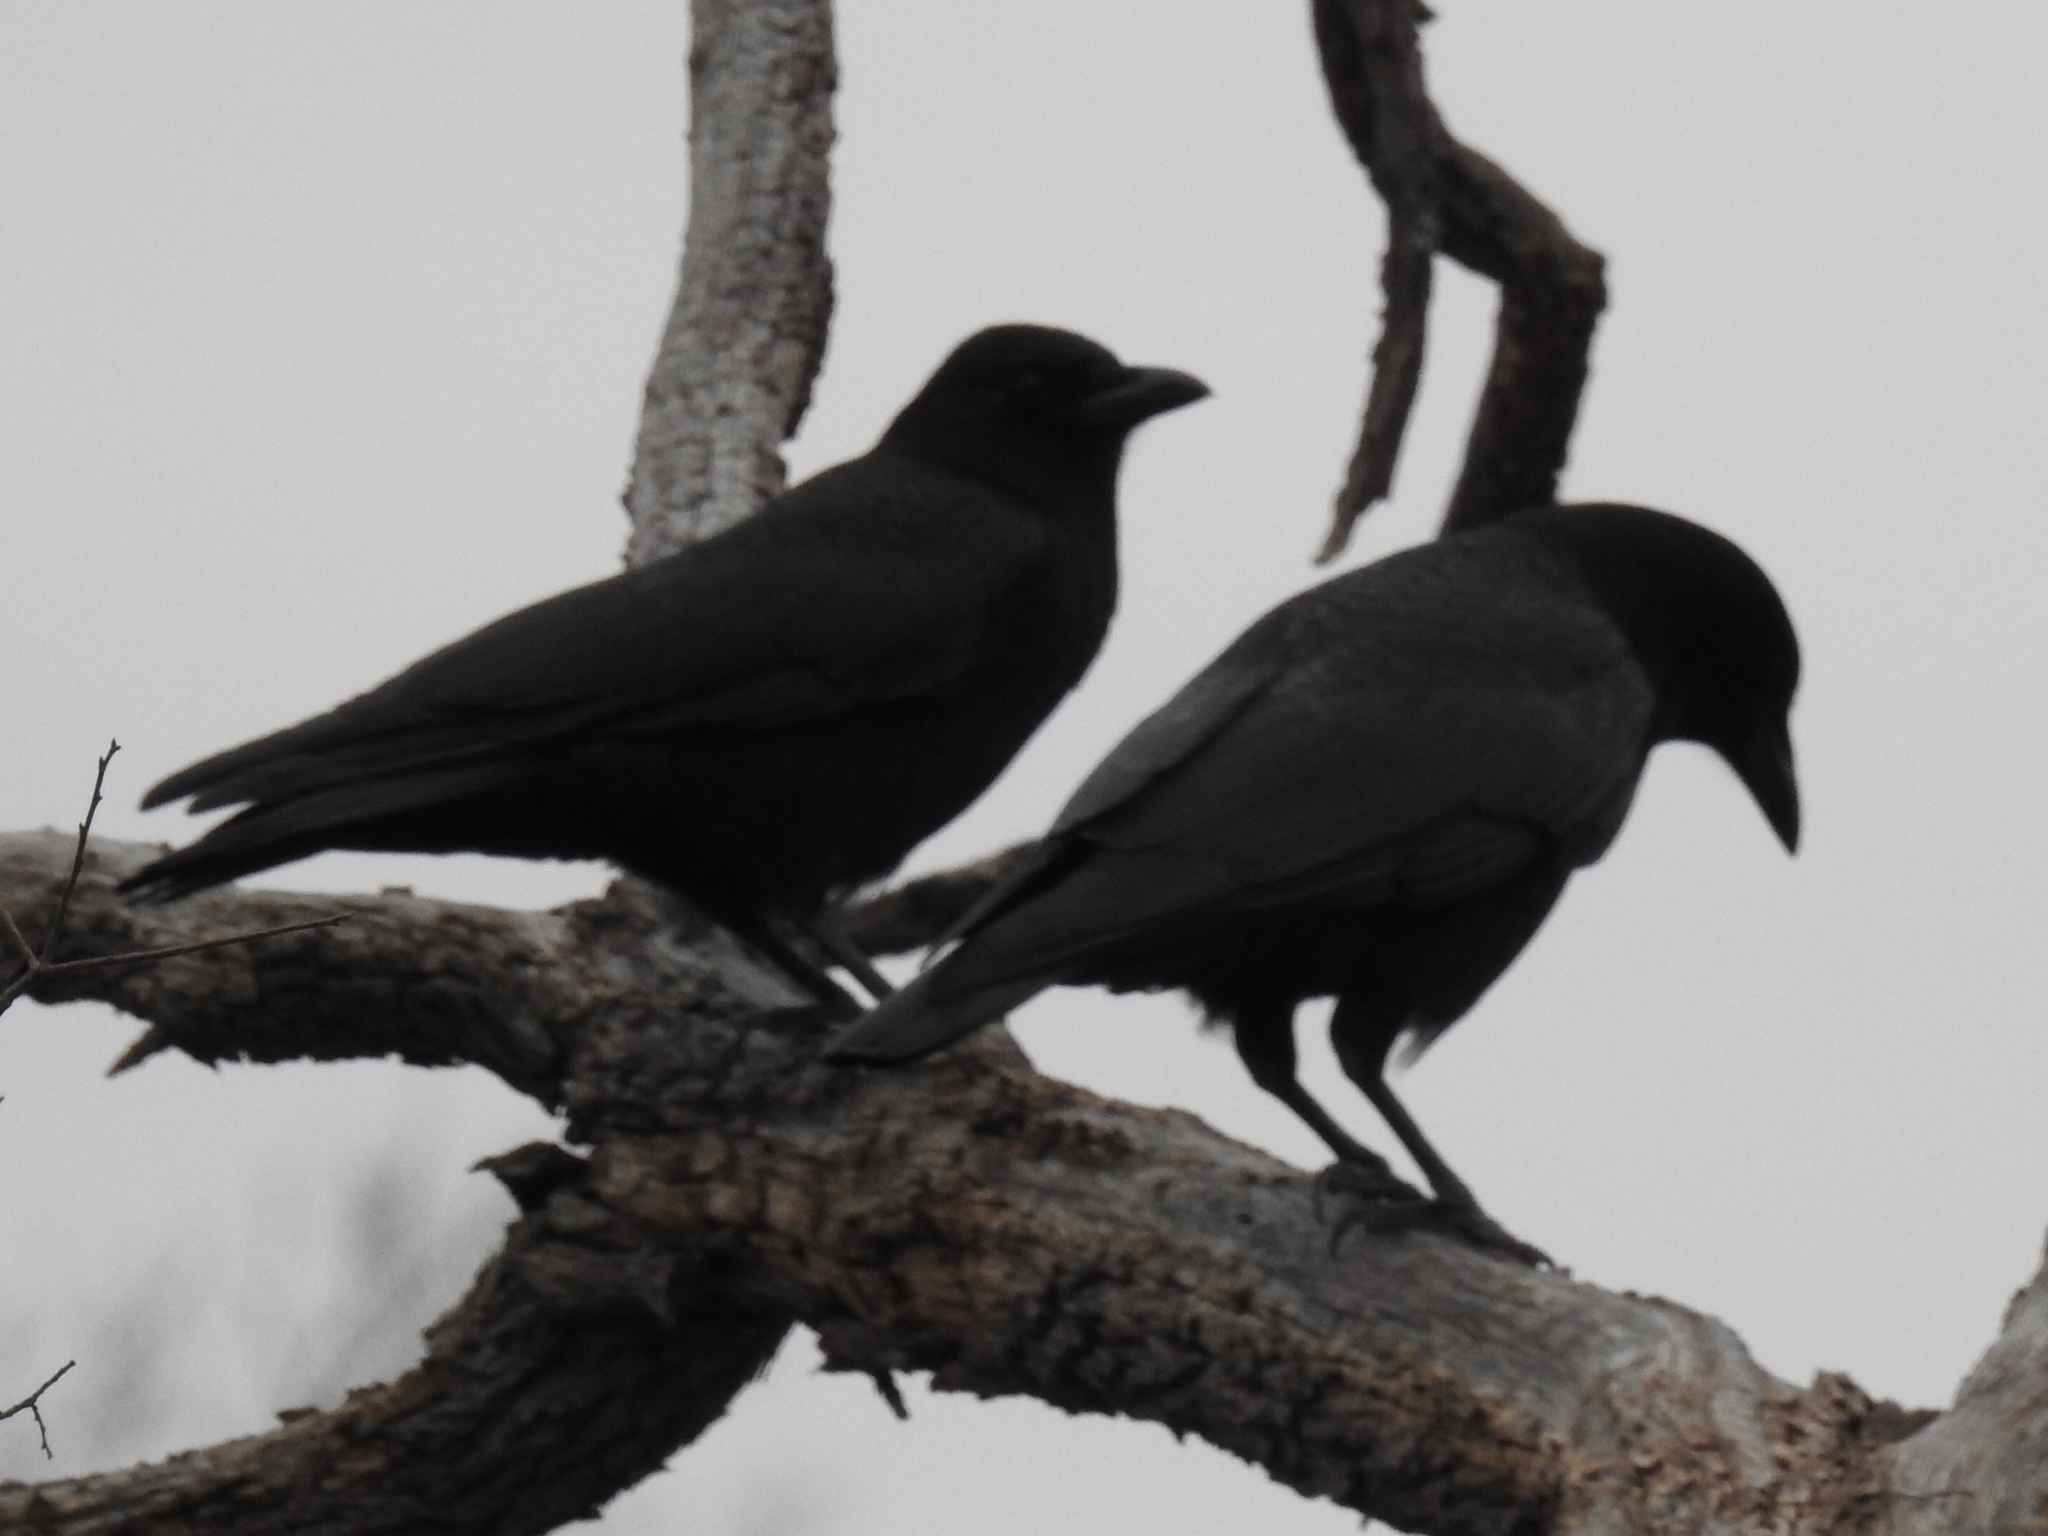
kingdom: Animalia
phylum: Chordata
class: Aves
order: Passeriformes
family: Corvidae
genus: Corvus
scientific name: Corvus brachyrhynchos
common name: American crow
